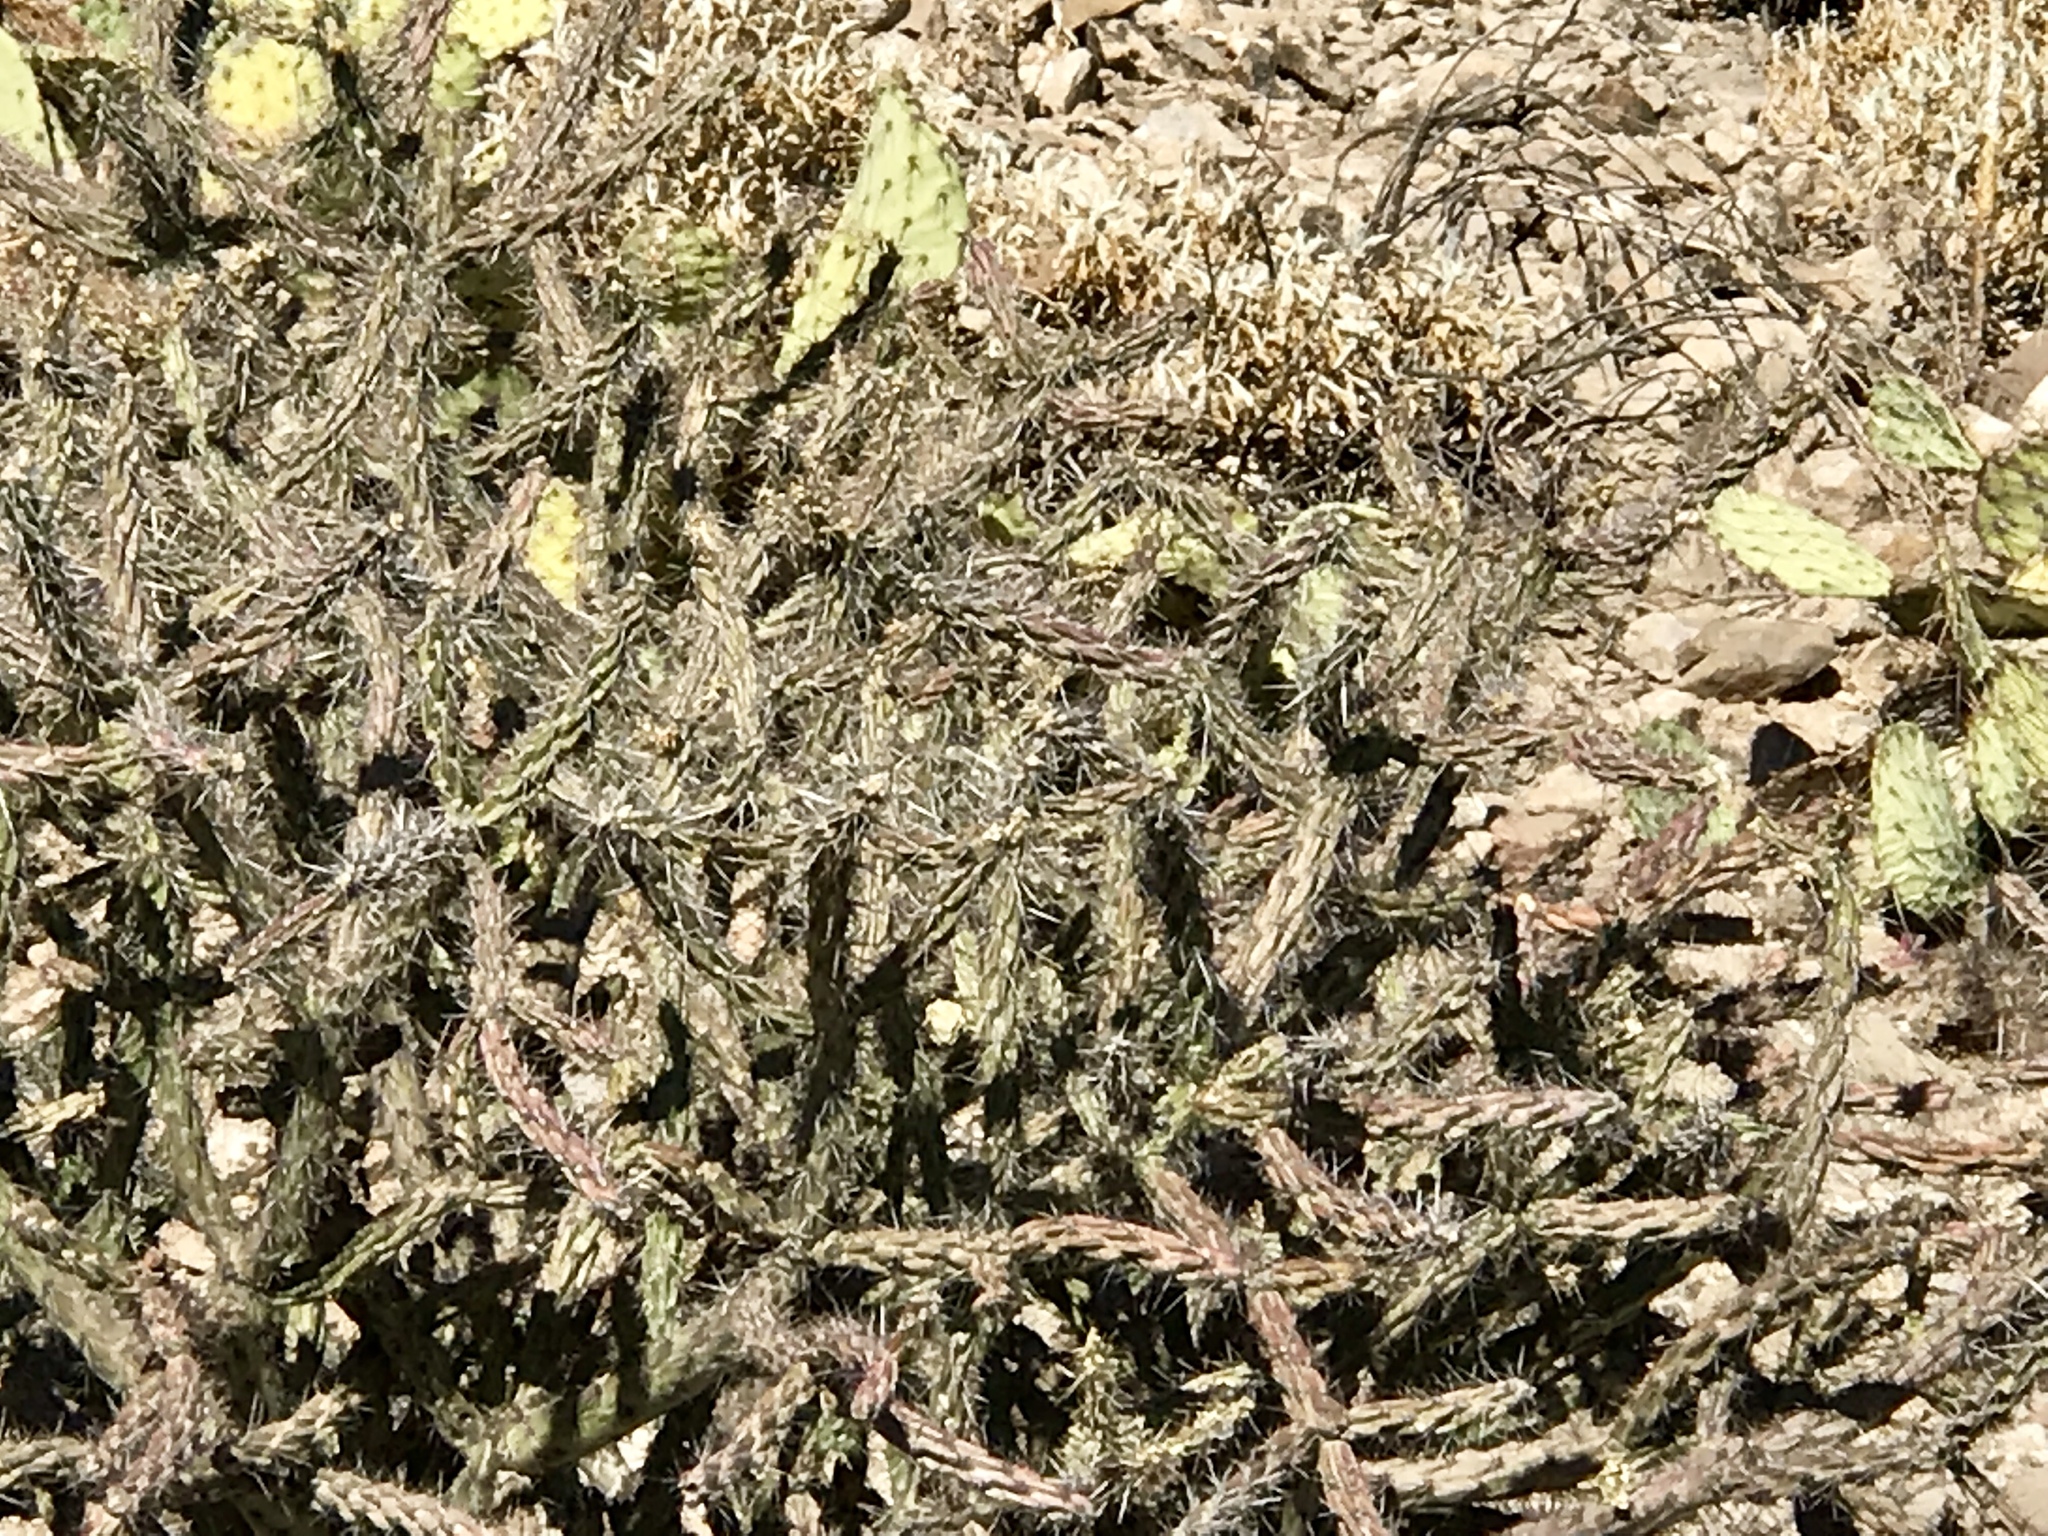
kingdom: Plantae
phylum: Tracheophyta
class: Magnoliopsida
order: Caryophyllales
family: Cactaceae
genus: Cylindropuntia
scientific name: Cylindropuntia acanthocarpa
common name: Buckhorn cholla
